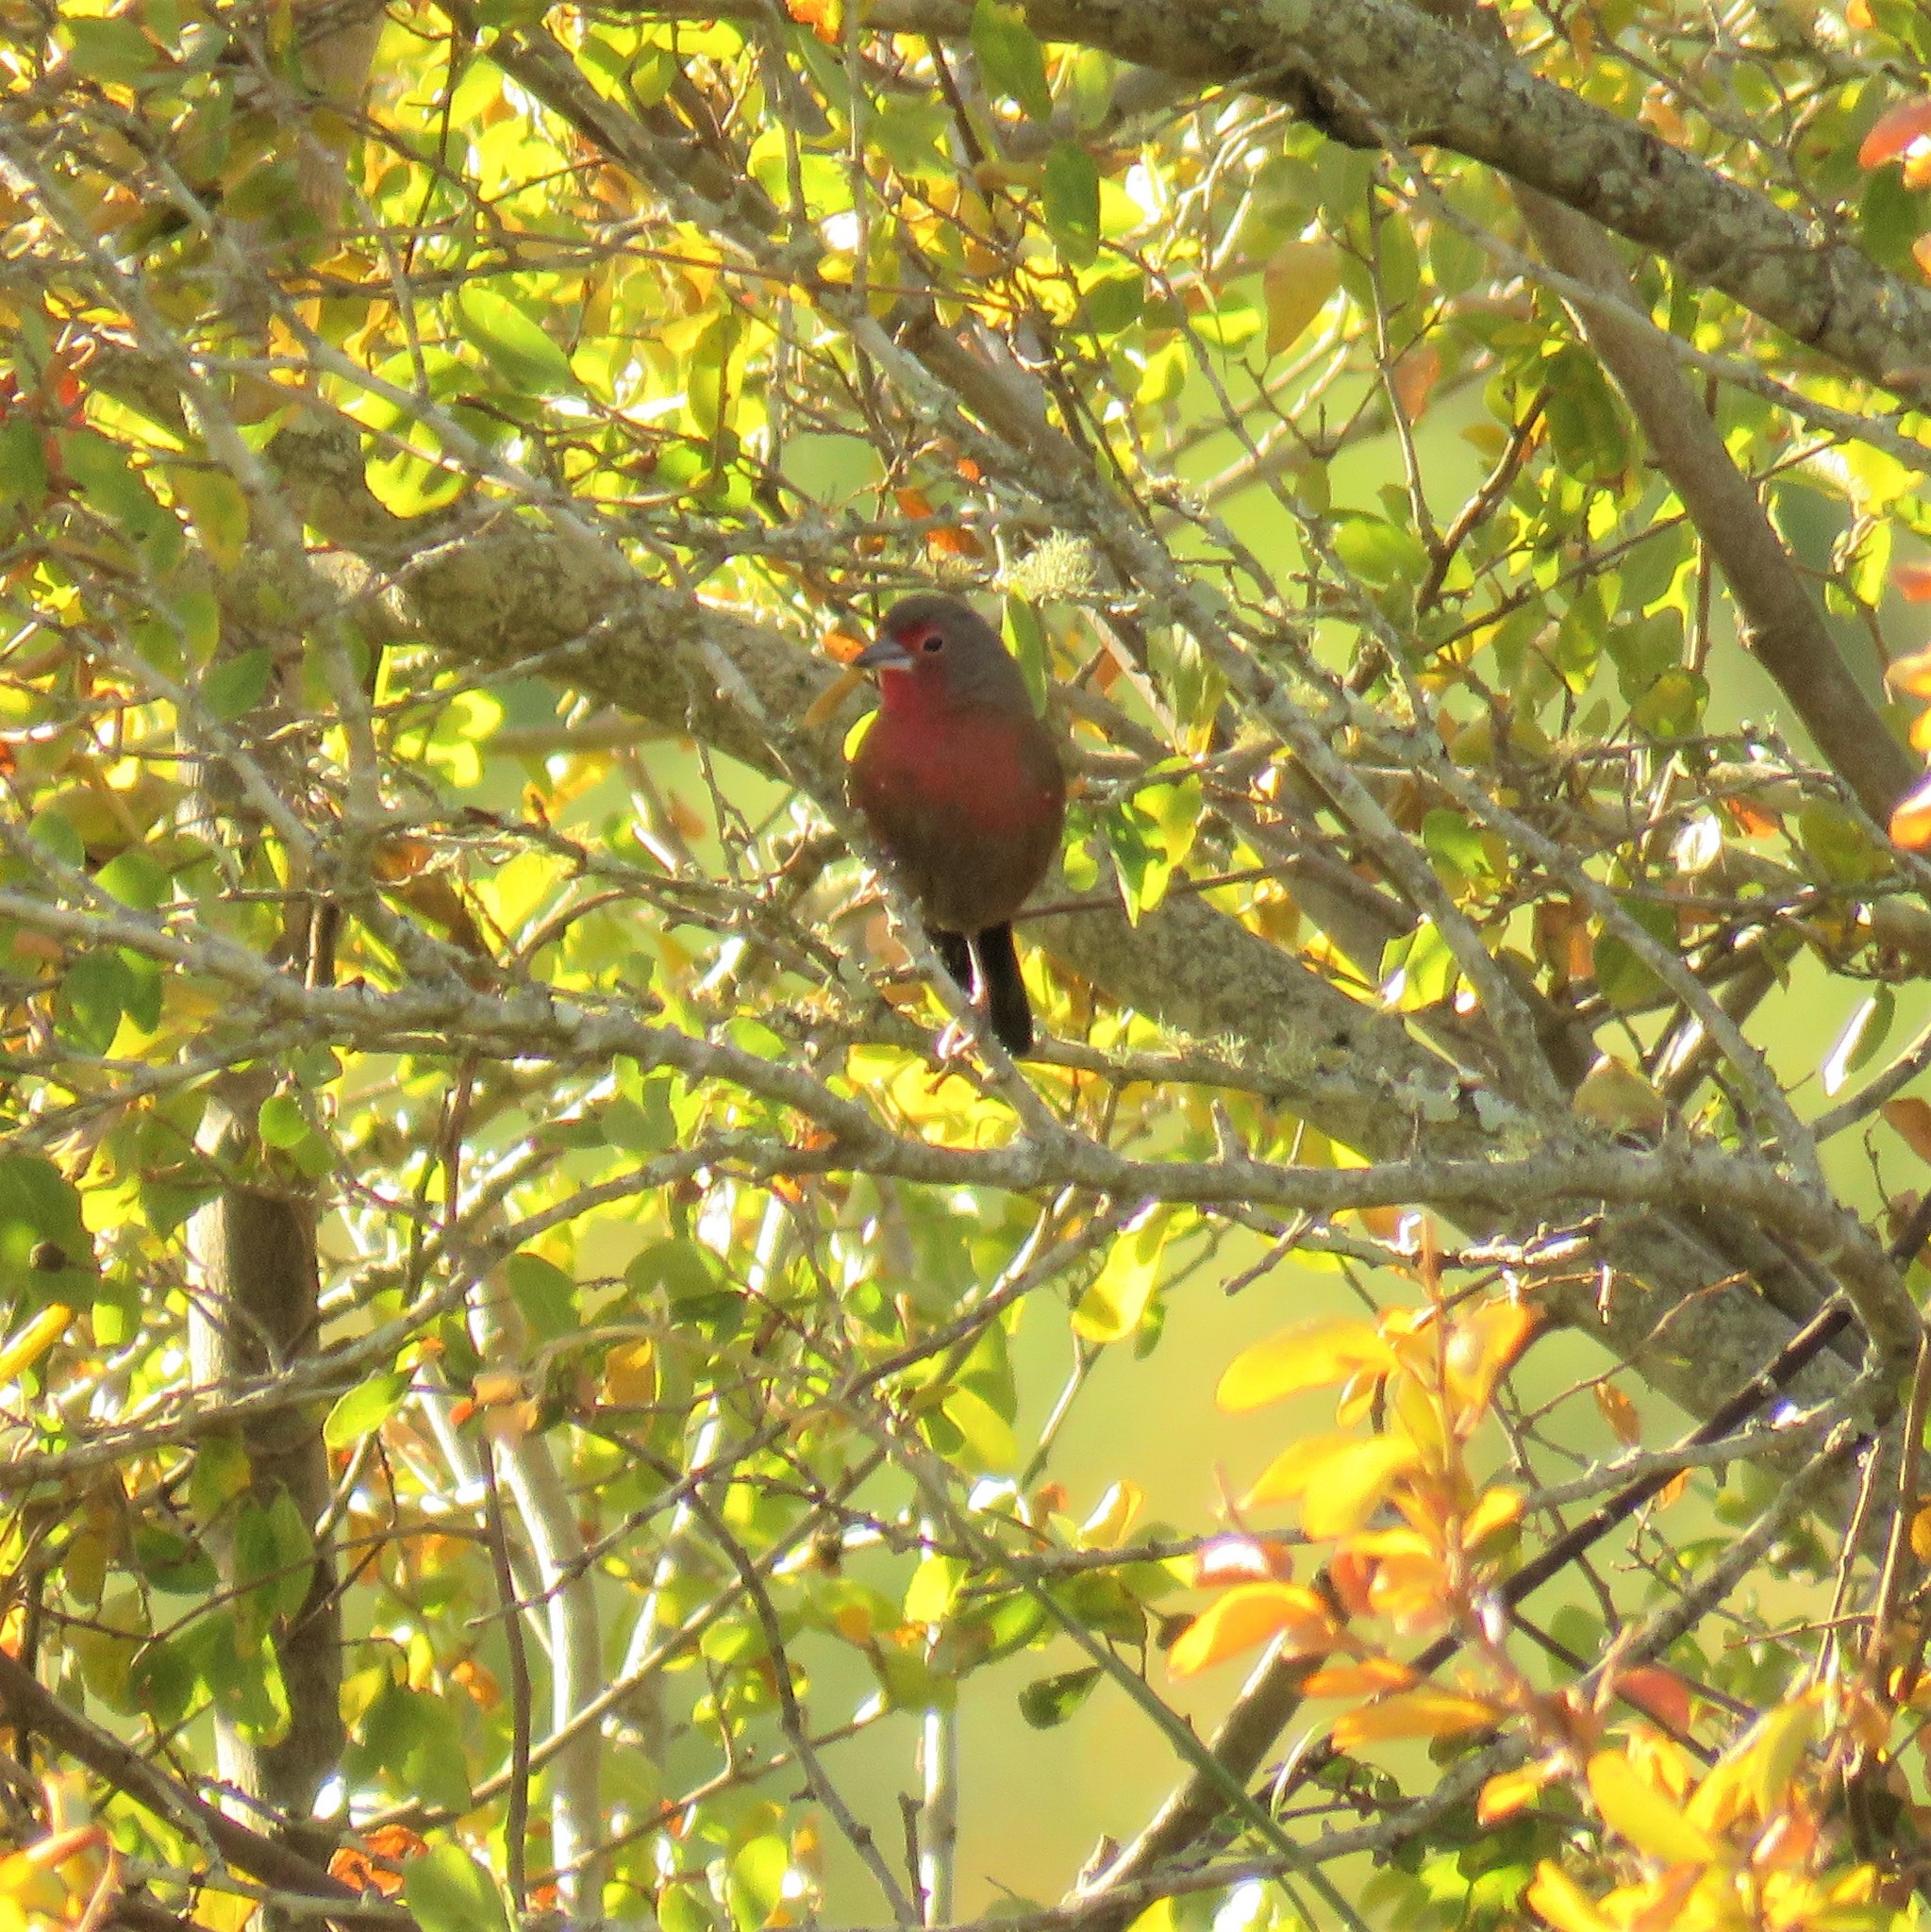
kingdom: Animalia
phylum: Chordata
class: Aves
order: Passeriformes
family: Estrildidae
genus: Lagonosticta
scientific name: Lagonosticta rubricata
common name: African firefinch
